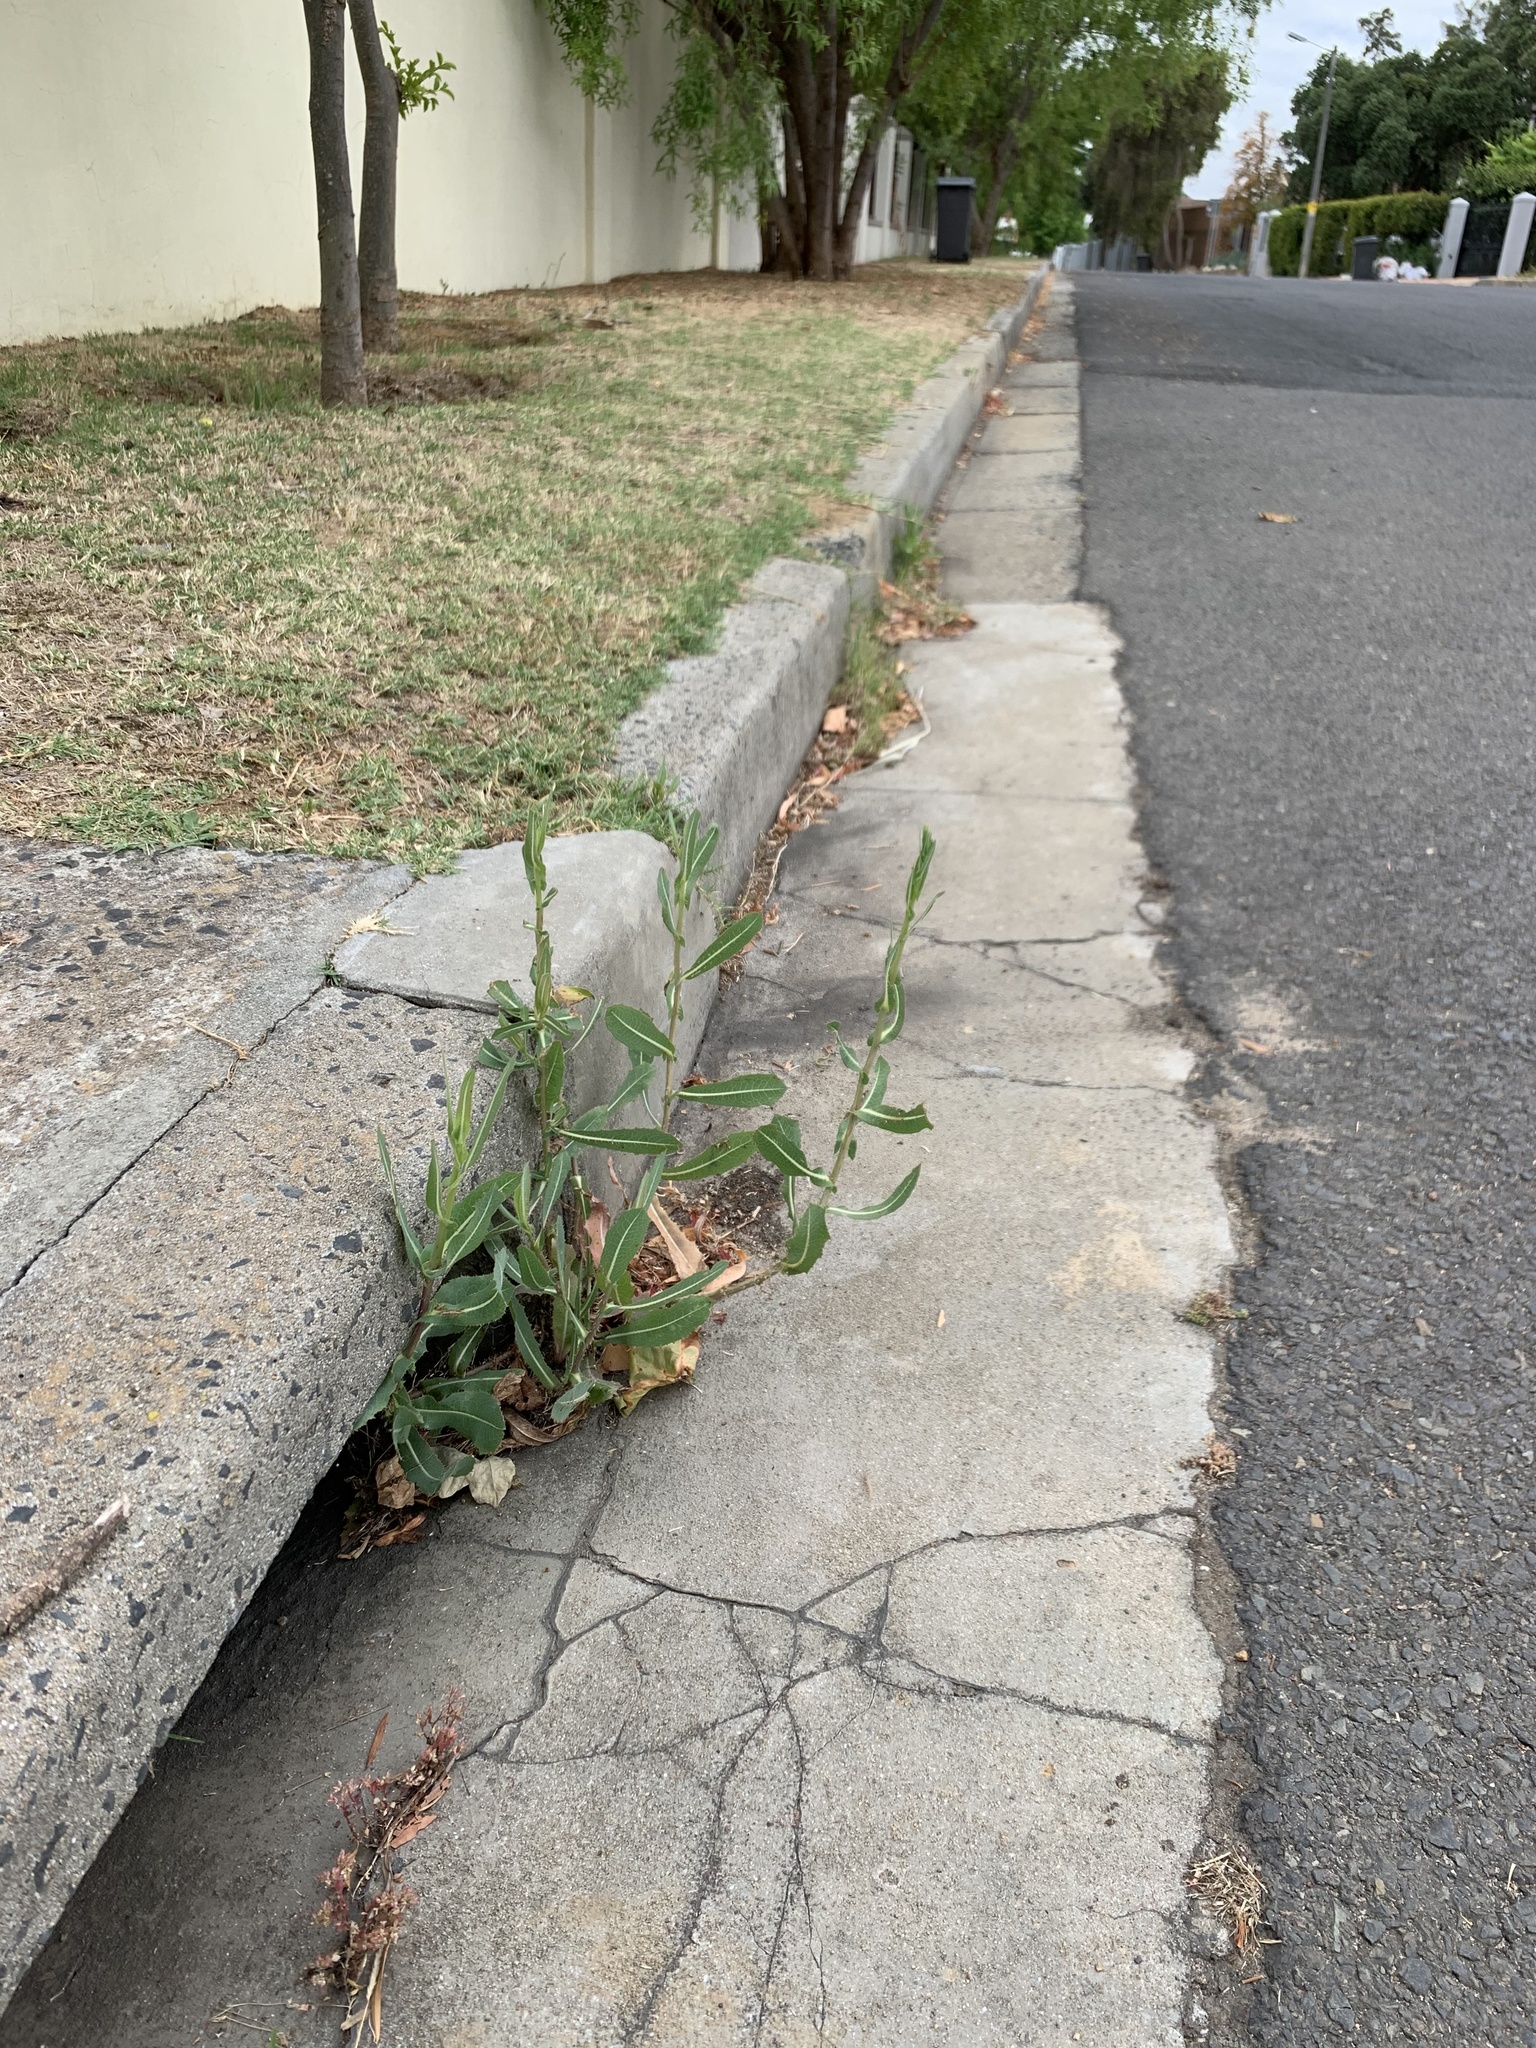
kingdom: Plantae
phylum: Tracheophyta
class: Magnoliopsida
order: Asterales
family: Asteraceae
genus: Lactuca
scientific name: Lactuca serriola
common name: Prickly lettuce
